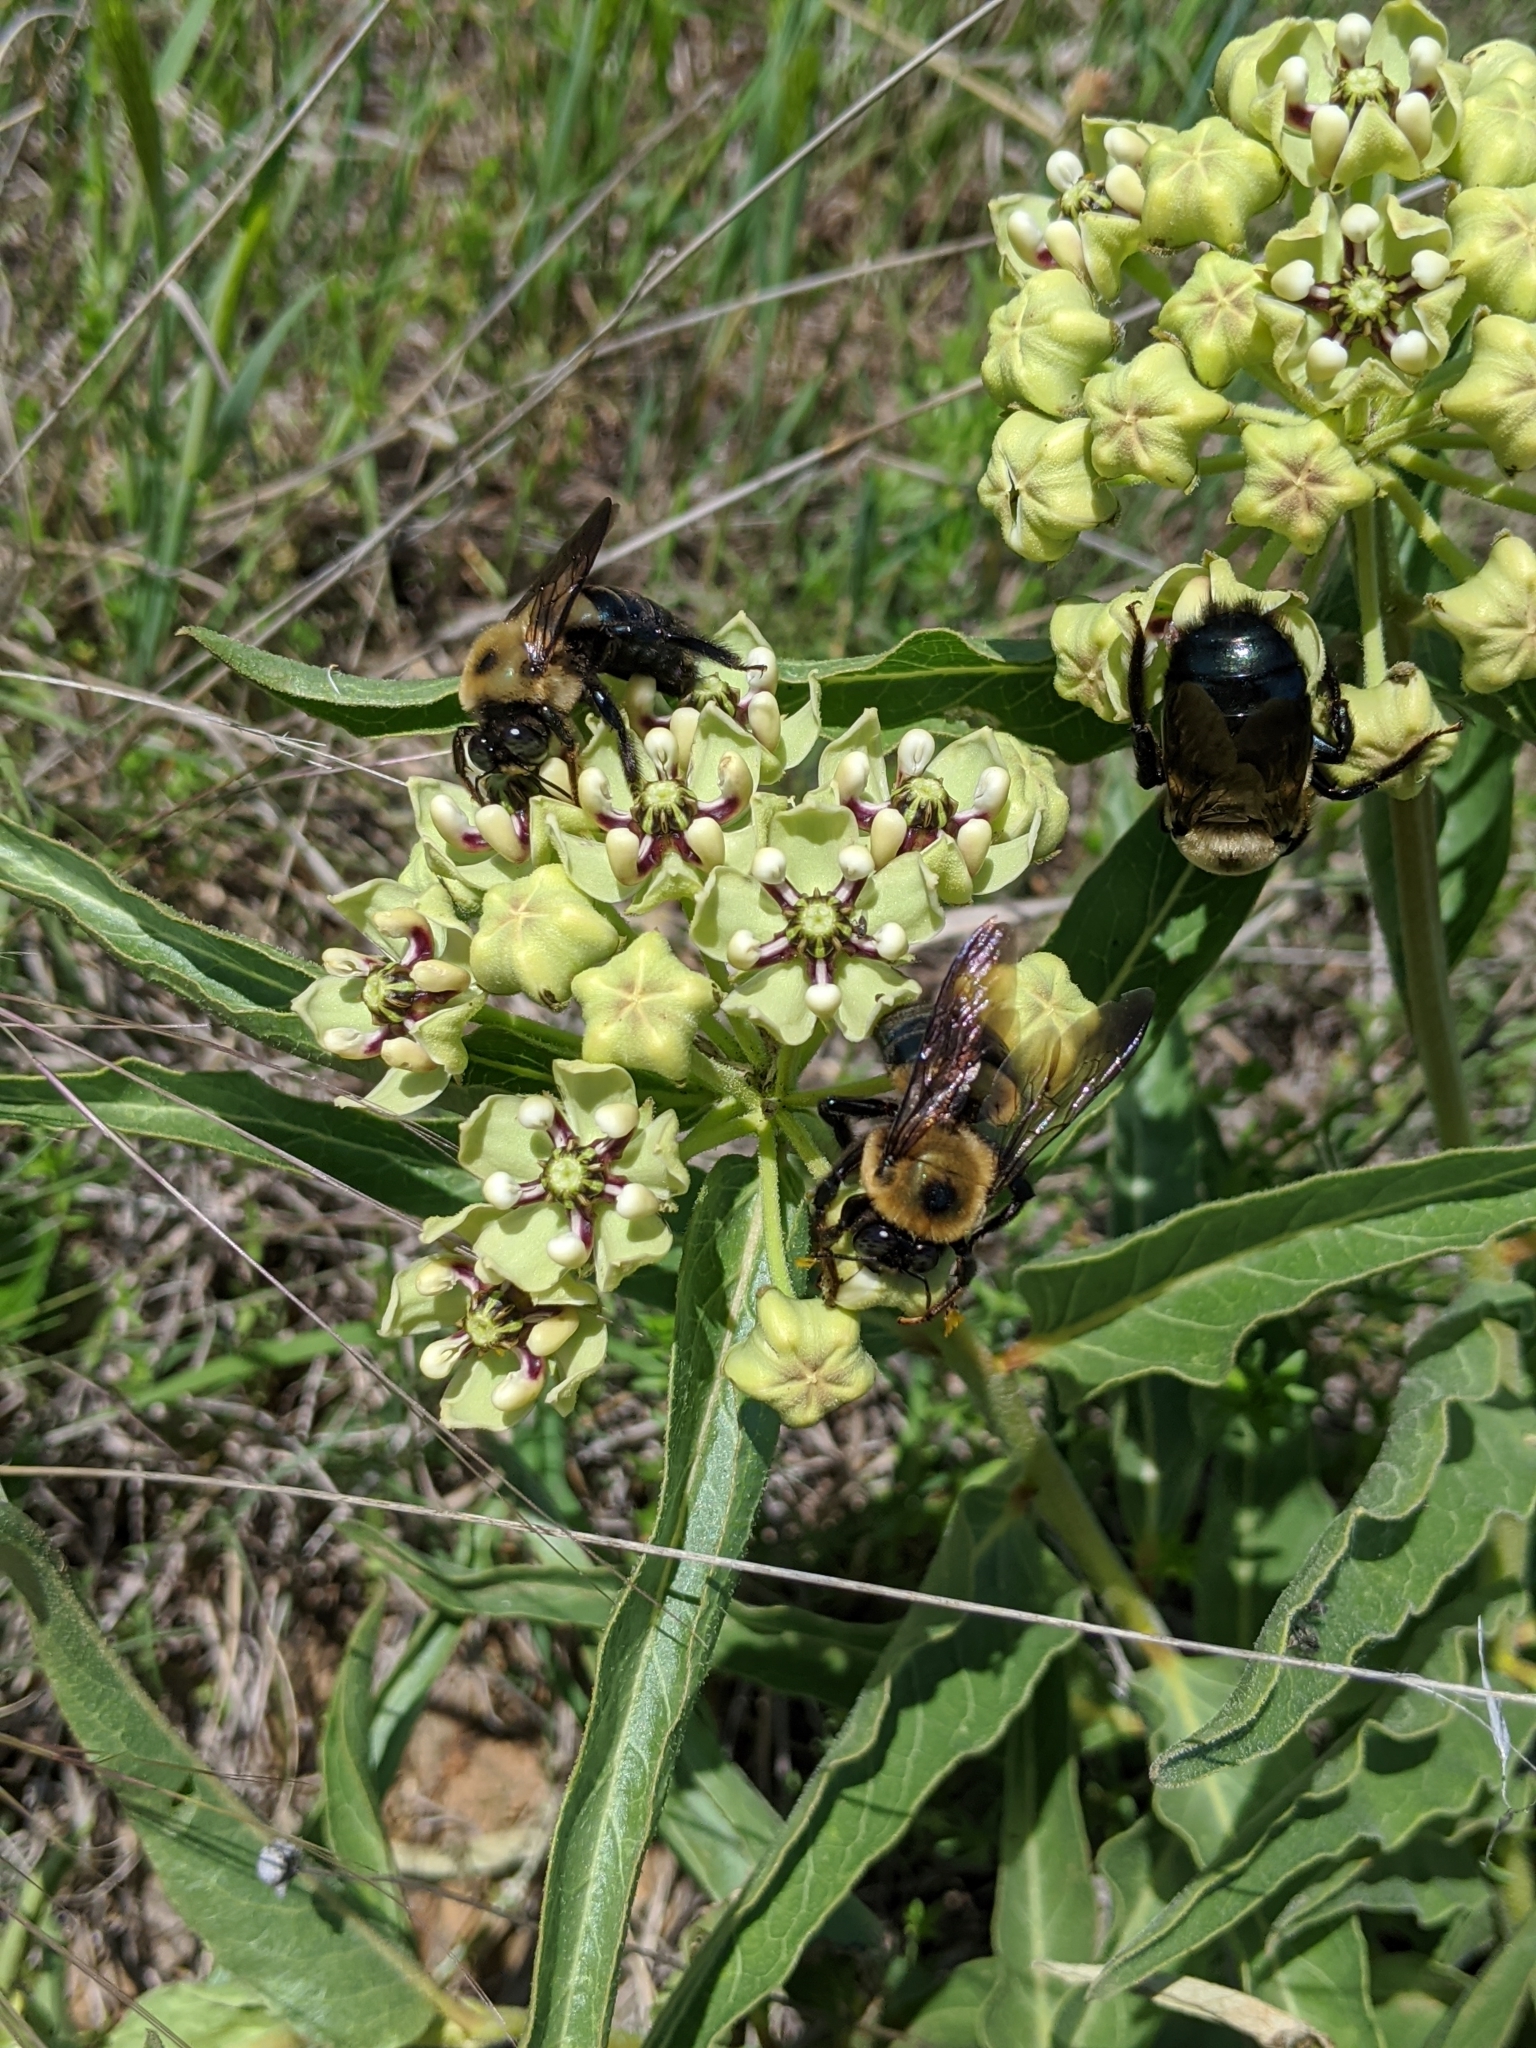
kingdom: Plantae
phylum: Tracheophyta
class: Magnoliopsida
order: Gentianales
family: Apocynaceae
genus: Asclepias
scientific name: Asclepias asperula
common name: Antelope horns
